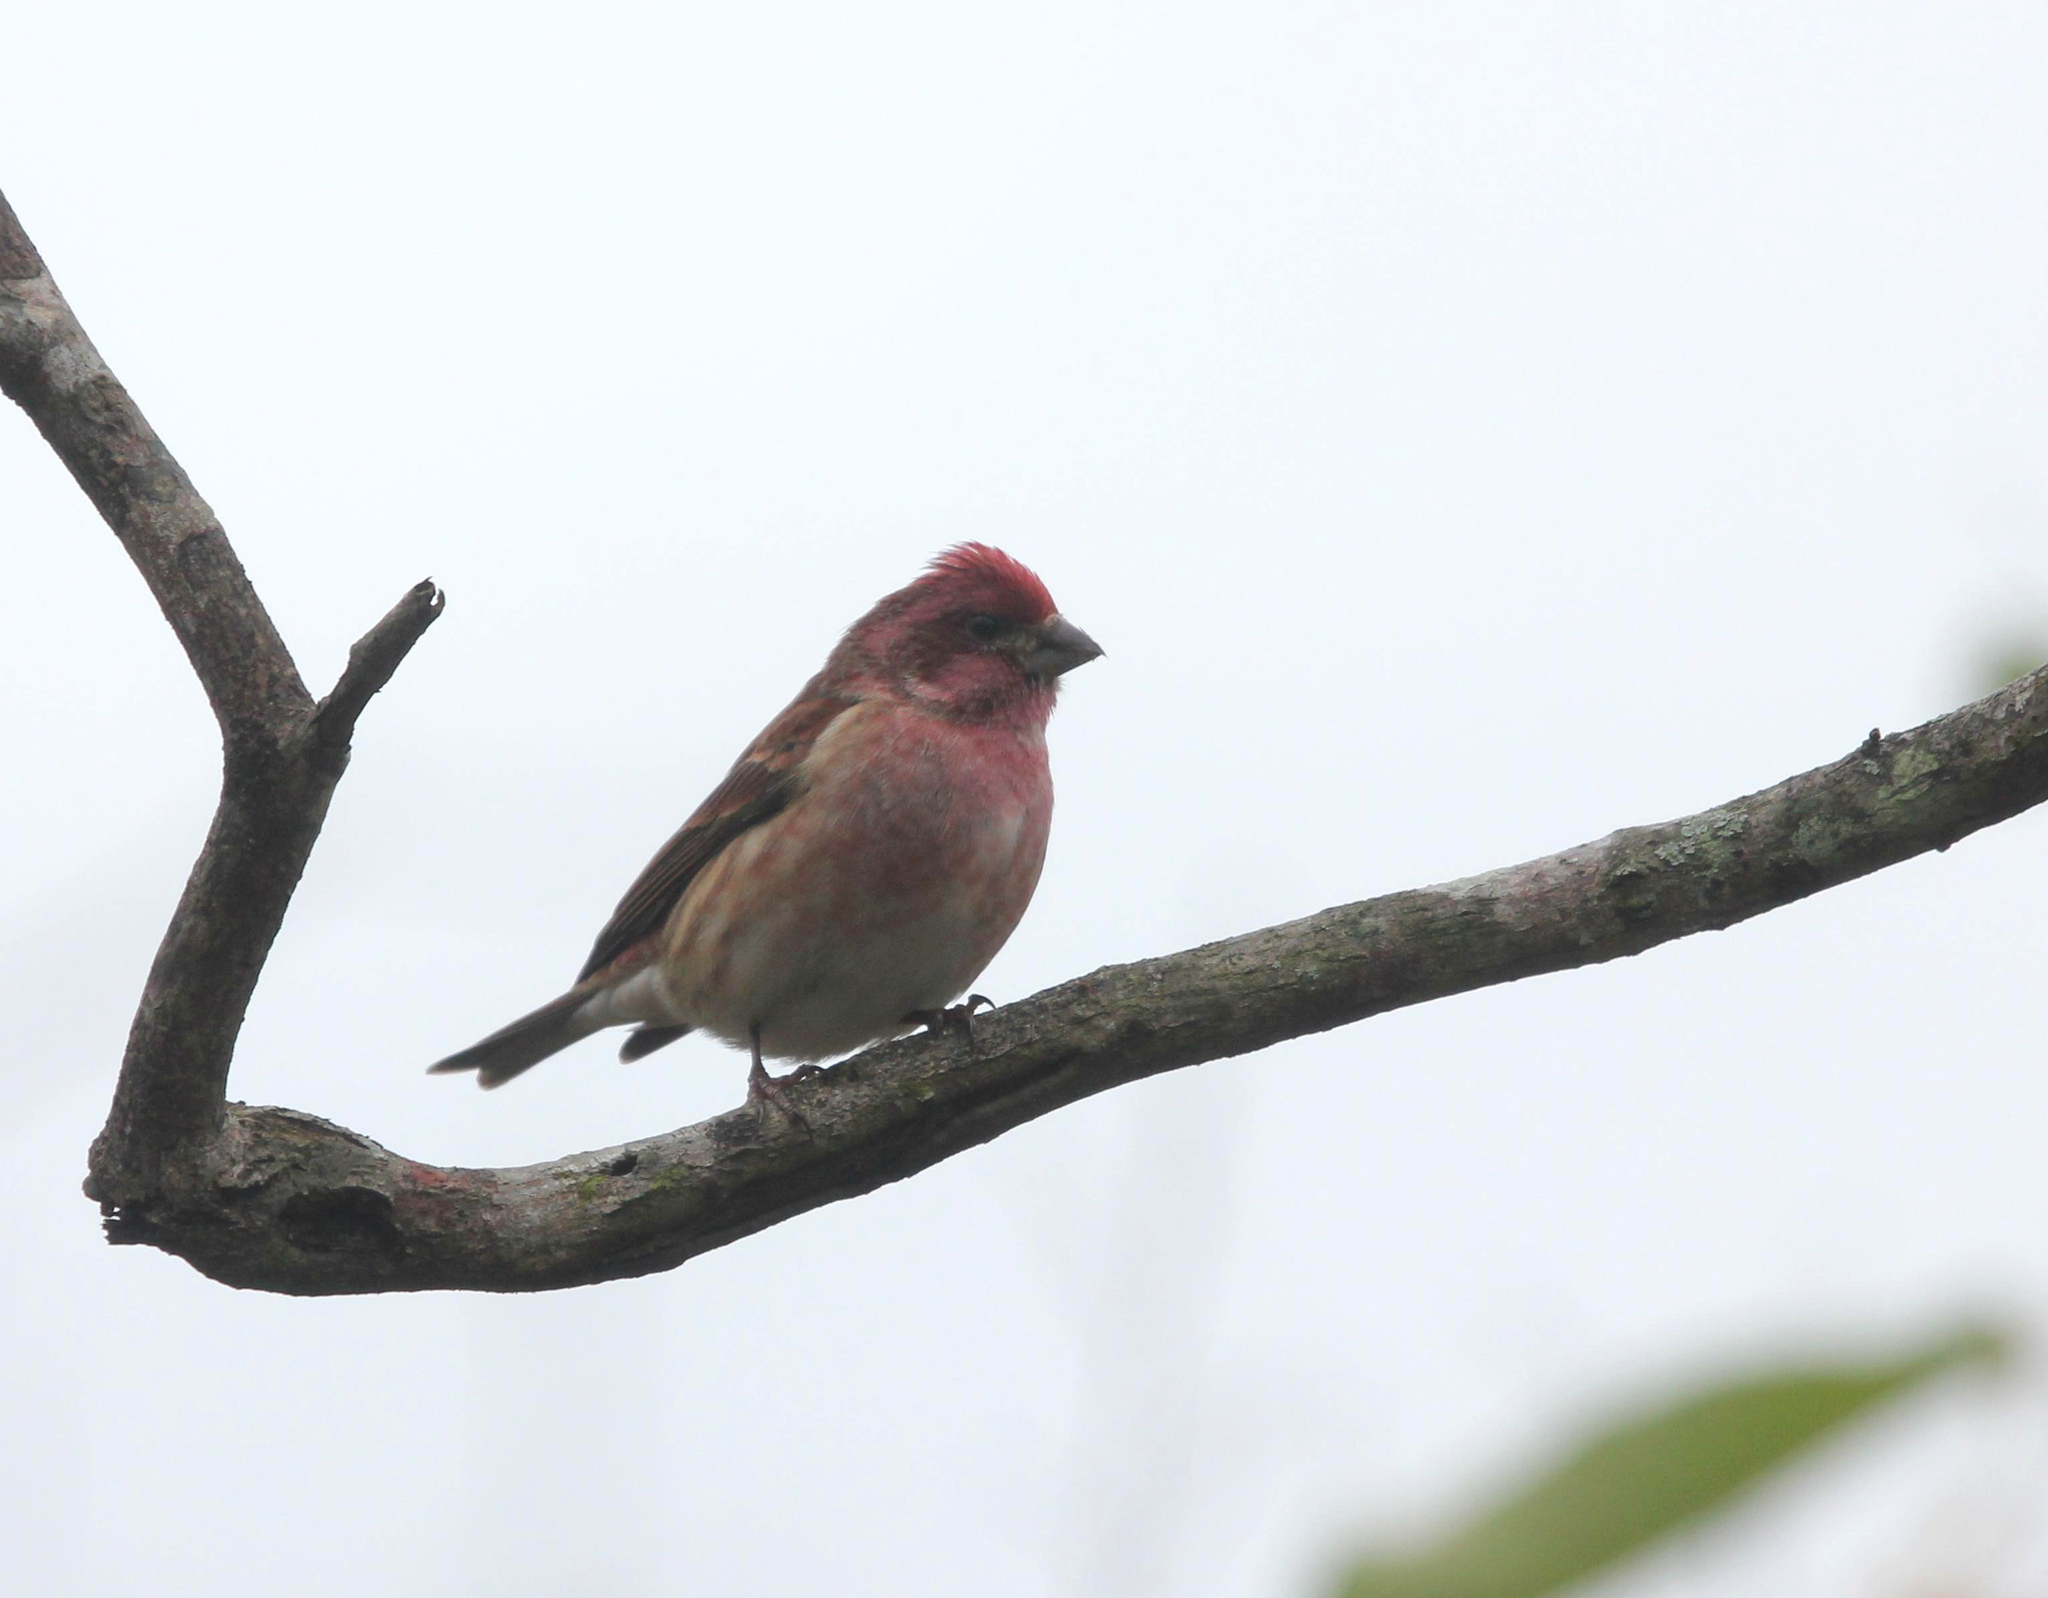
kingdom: Animalia
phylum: Chordata
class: Aves
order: Passeriformes
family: Fringillidae
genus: Haemorhous
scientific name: Haemorhous purpureus
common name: Purple finch
